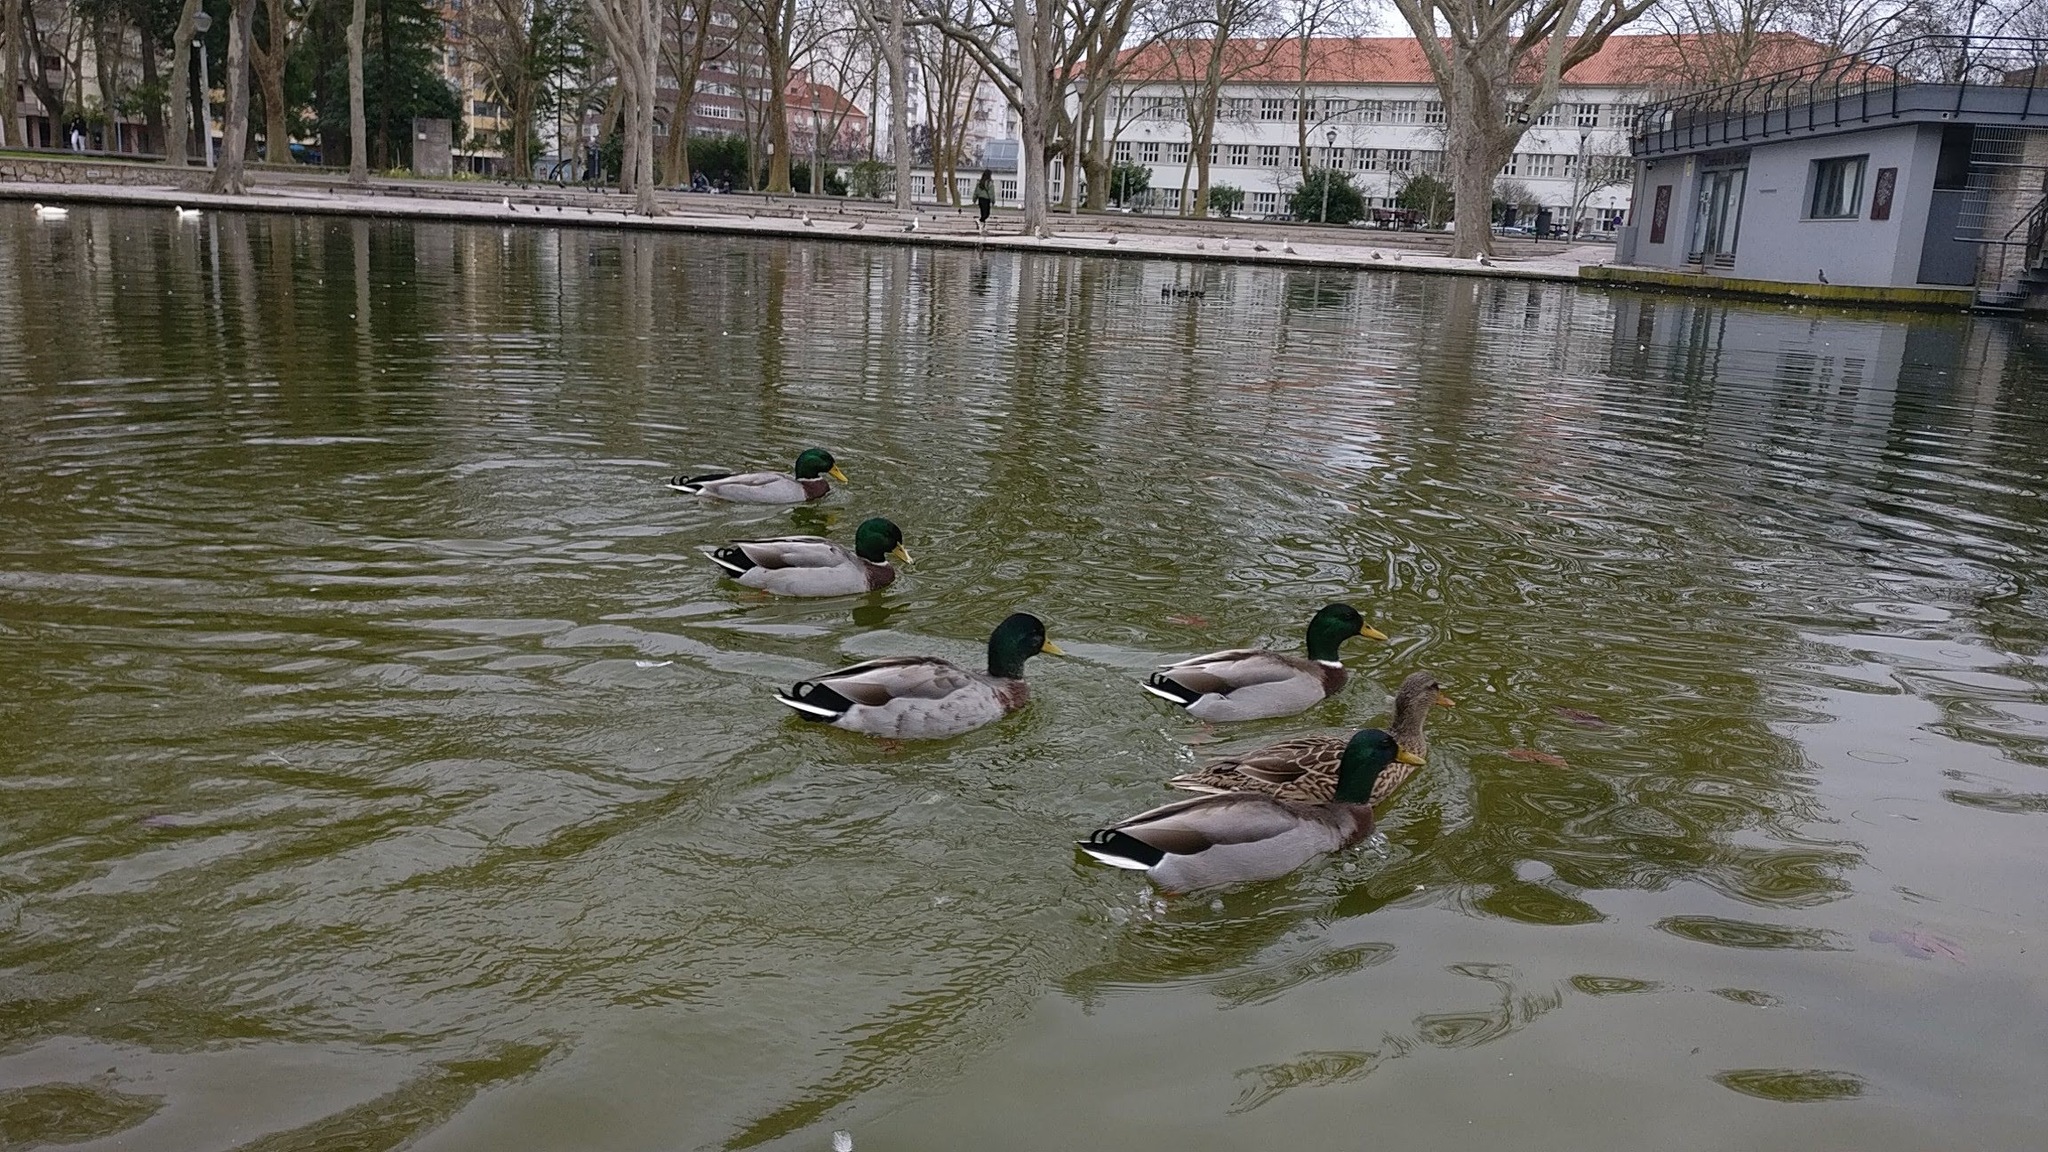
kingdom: Animalia
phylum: Chordata
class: Aves
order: Anseriformes
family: Anatidae
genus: Anas
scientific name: Anas platyrhynchos
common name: Mallard
